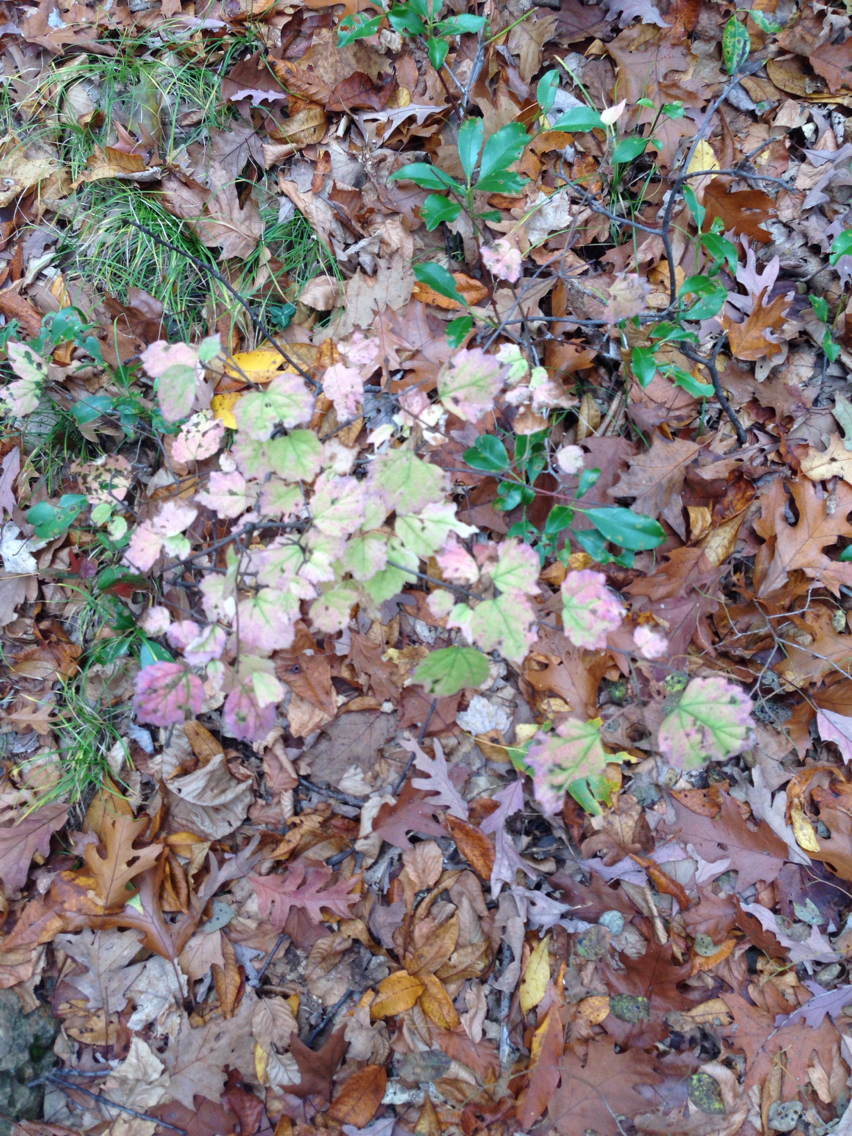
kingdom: Plantae
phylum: Tracheophyta
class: Magnoliopsida
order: Dipsacales
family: Viburnaceae
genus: Viburnum
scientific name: Viburnum acerifolium
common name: Dockmackie
